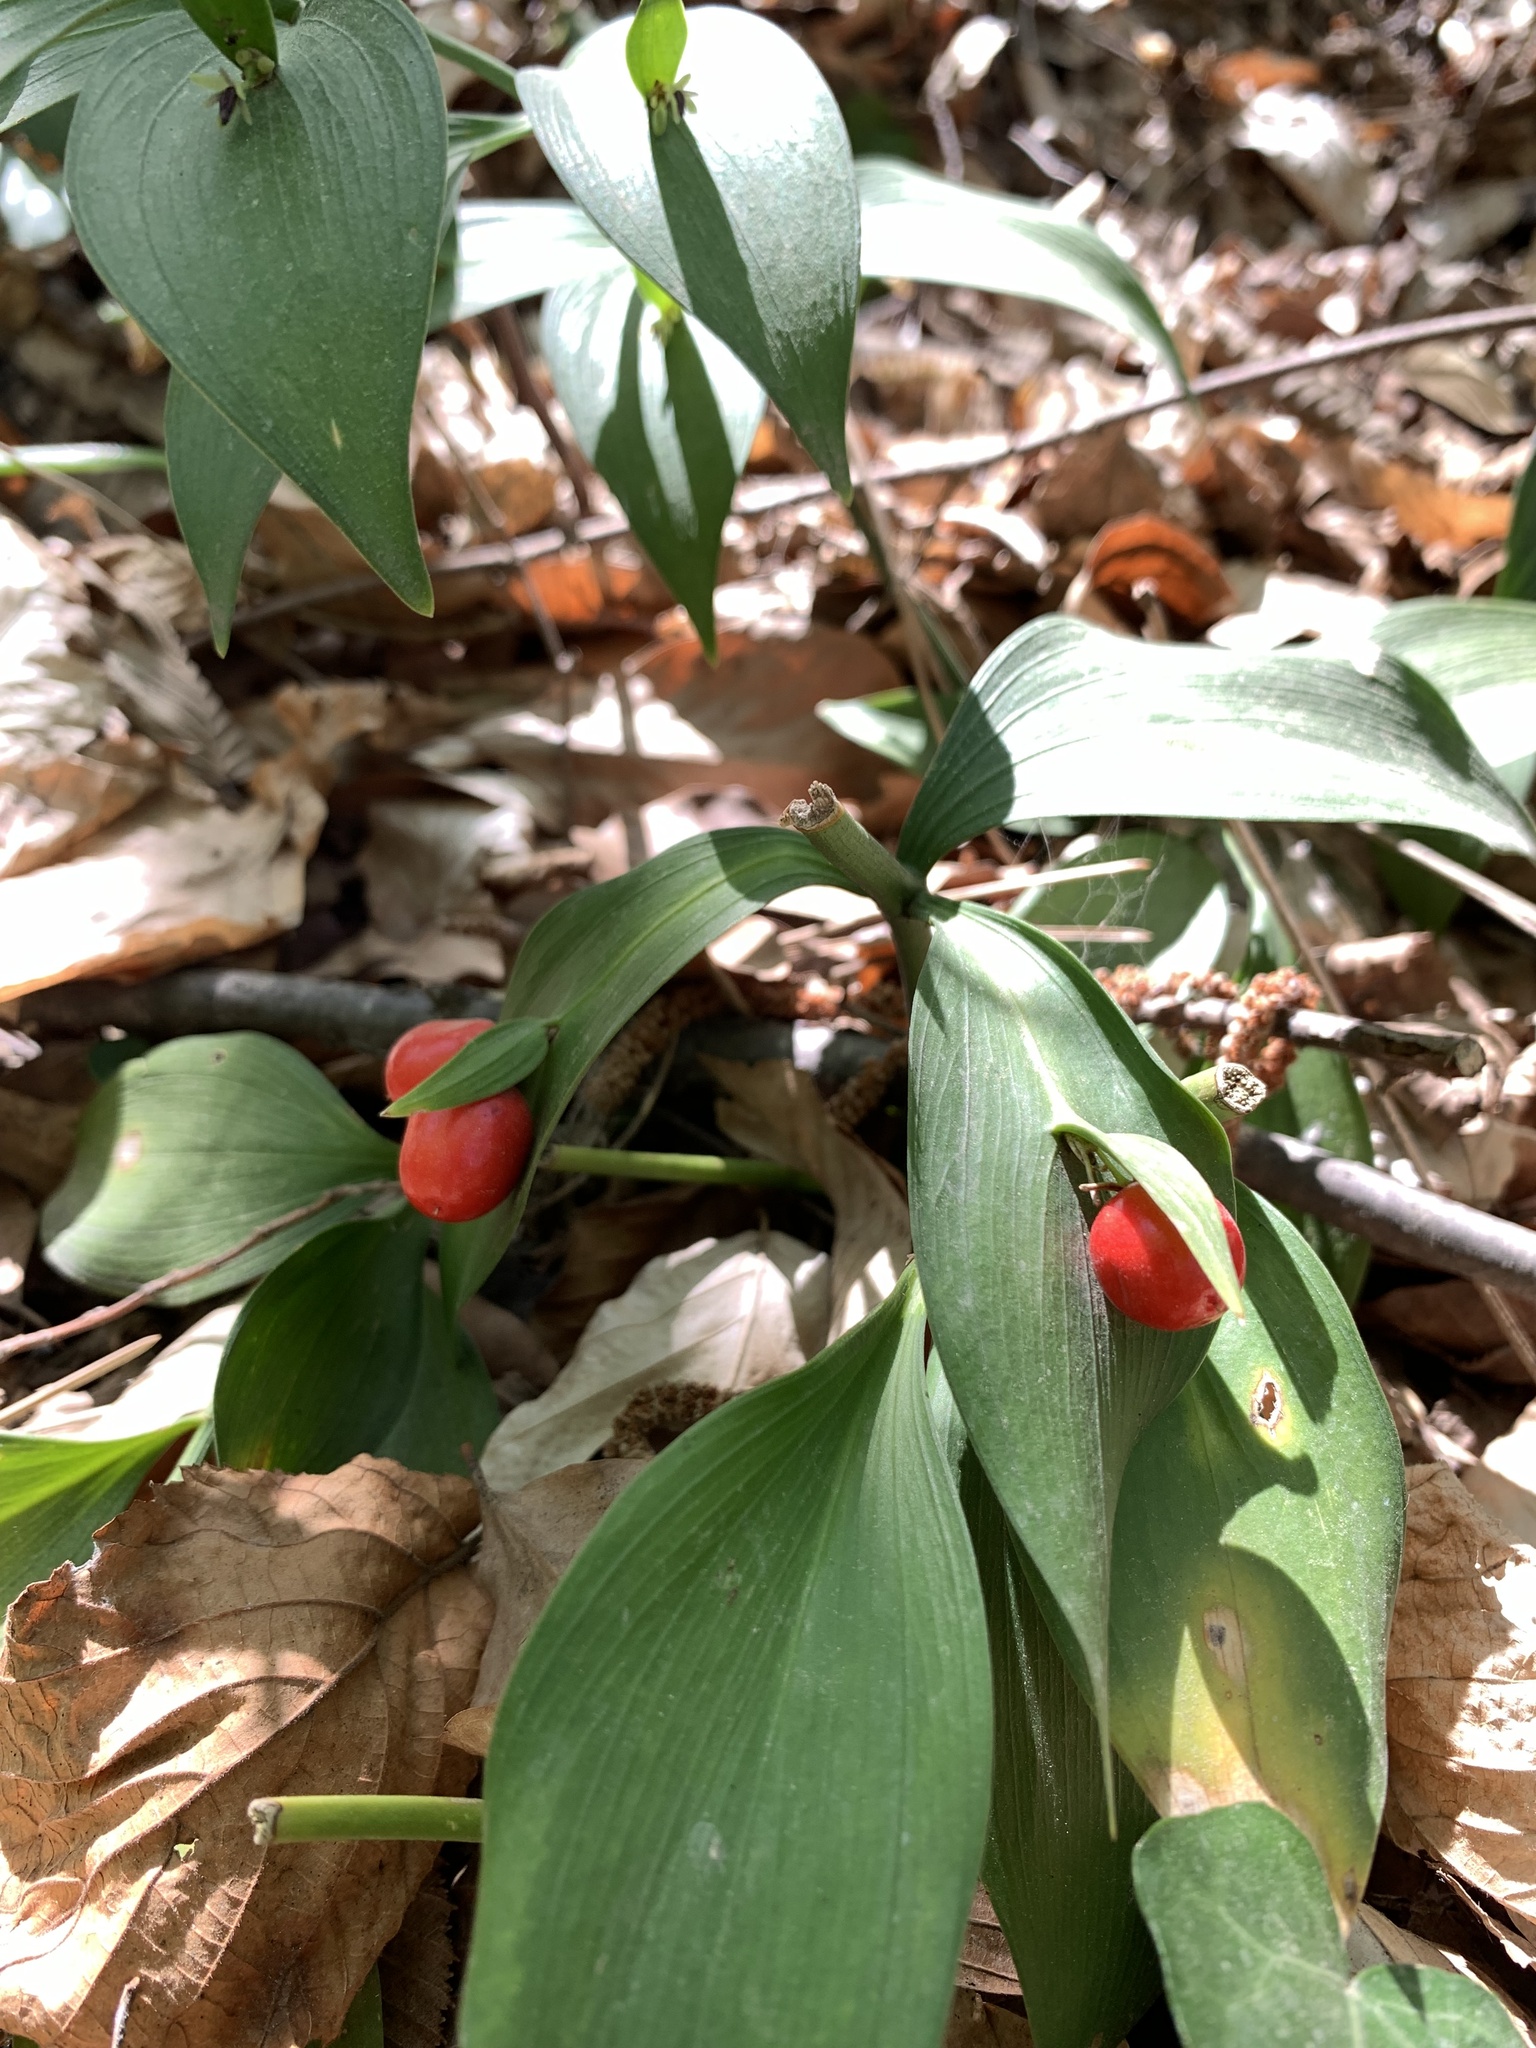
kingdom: Plantae
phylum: Tracheophyta
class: Liliopsida
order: Asparagales
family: Asparagaceae
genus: Ruscus
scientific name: Ruscus hypoglossum
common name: Spineless butcher's-broom
